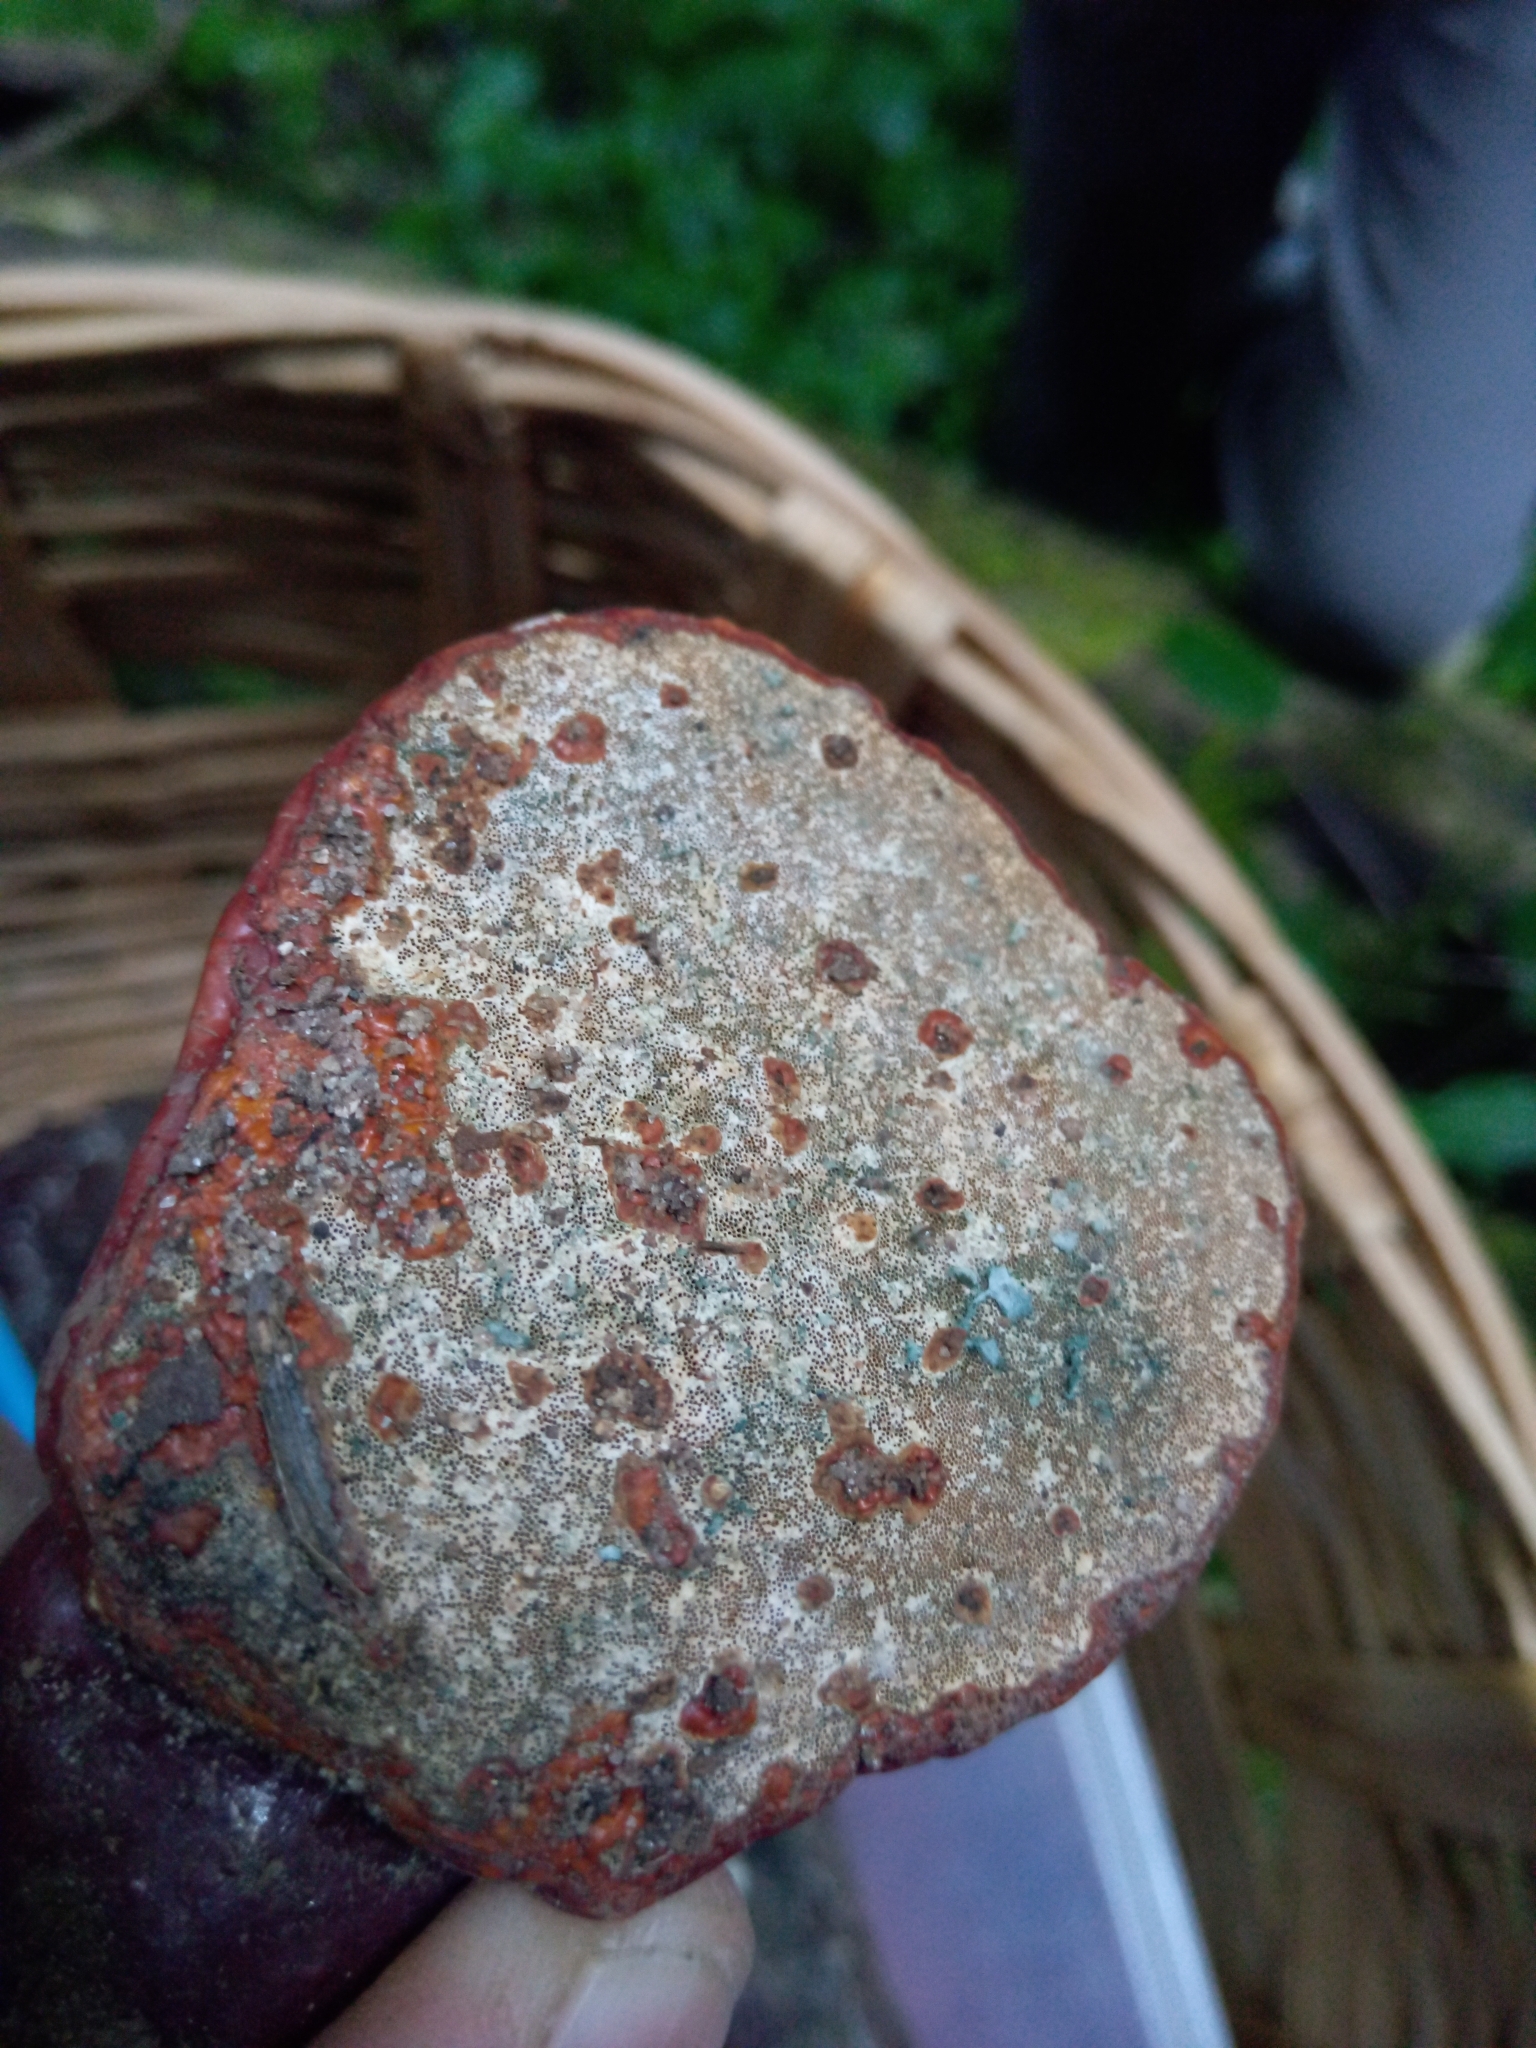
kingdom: Fungi
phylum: Ascomycota
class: Sordariomycetes
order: Hypocreales
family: Hypocreaceae
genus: Trichoderma
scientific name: Trichoderma harzianum
